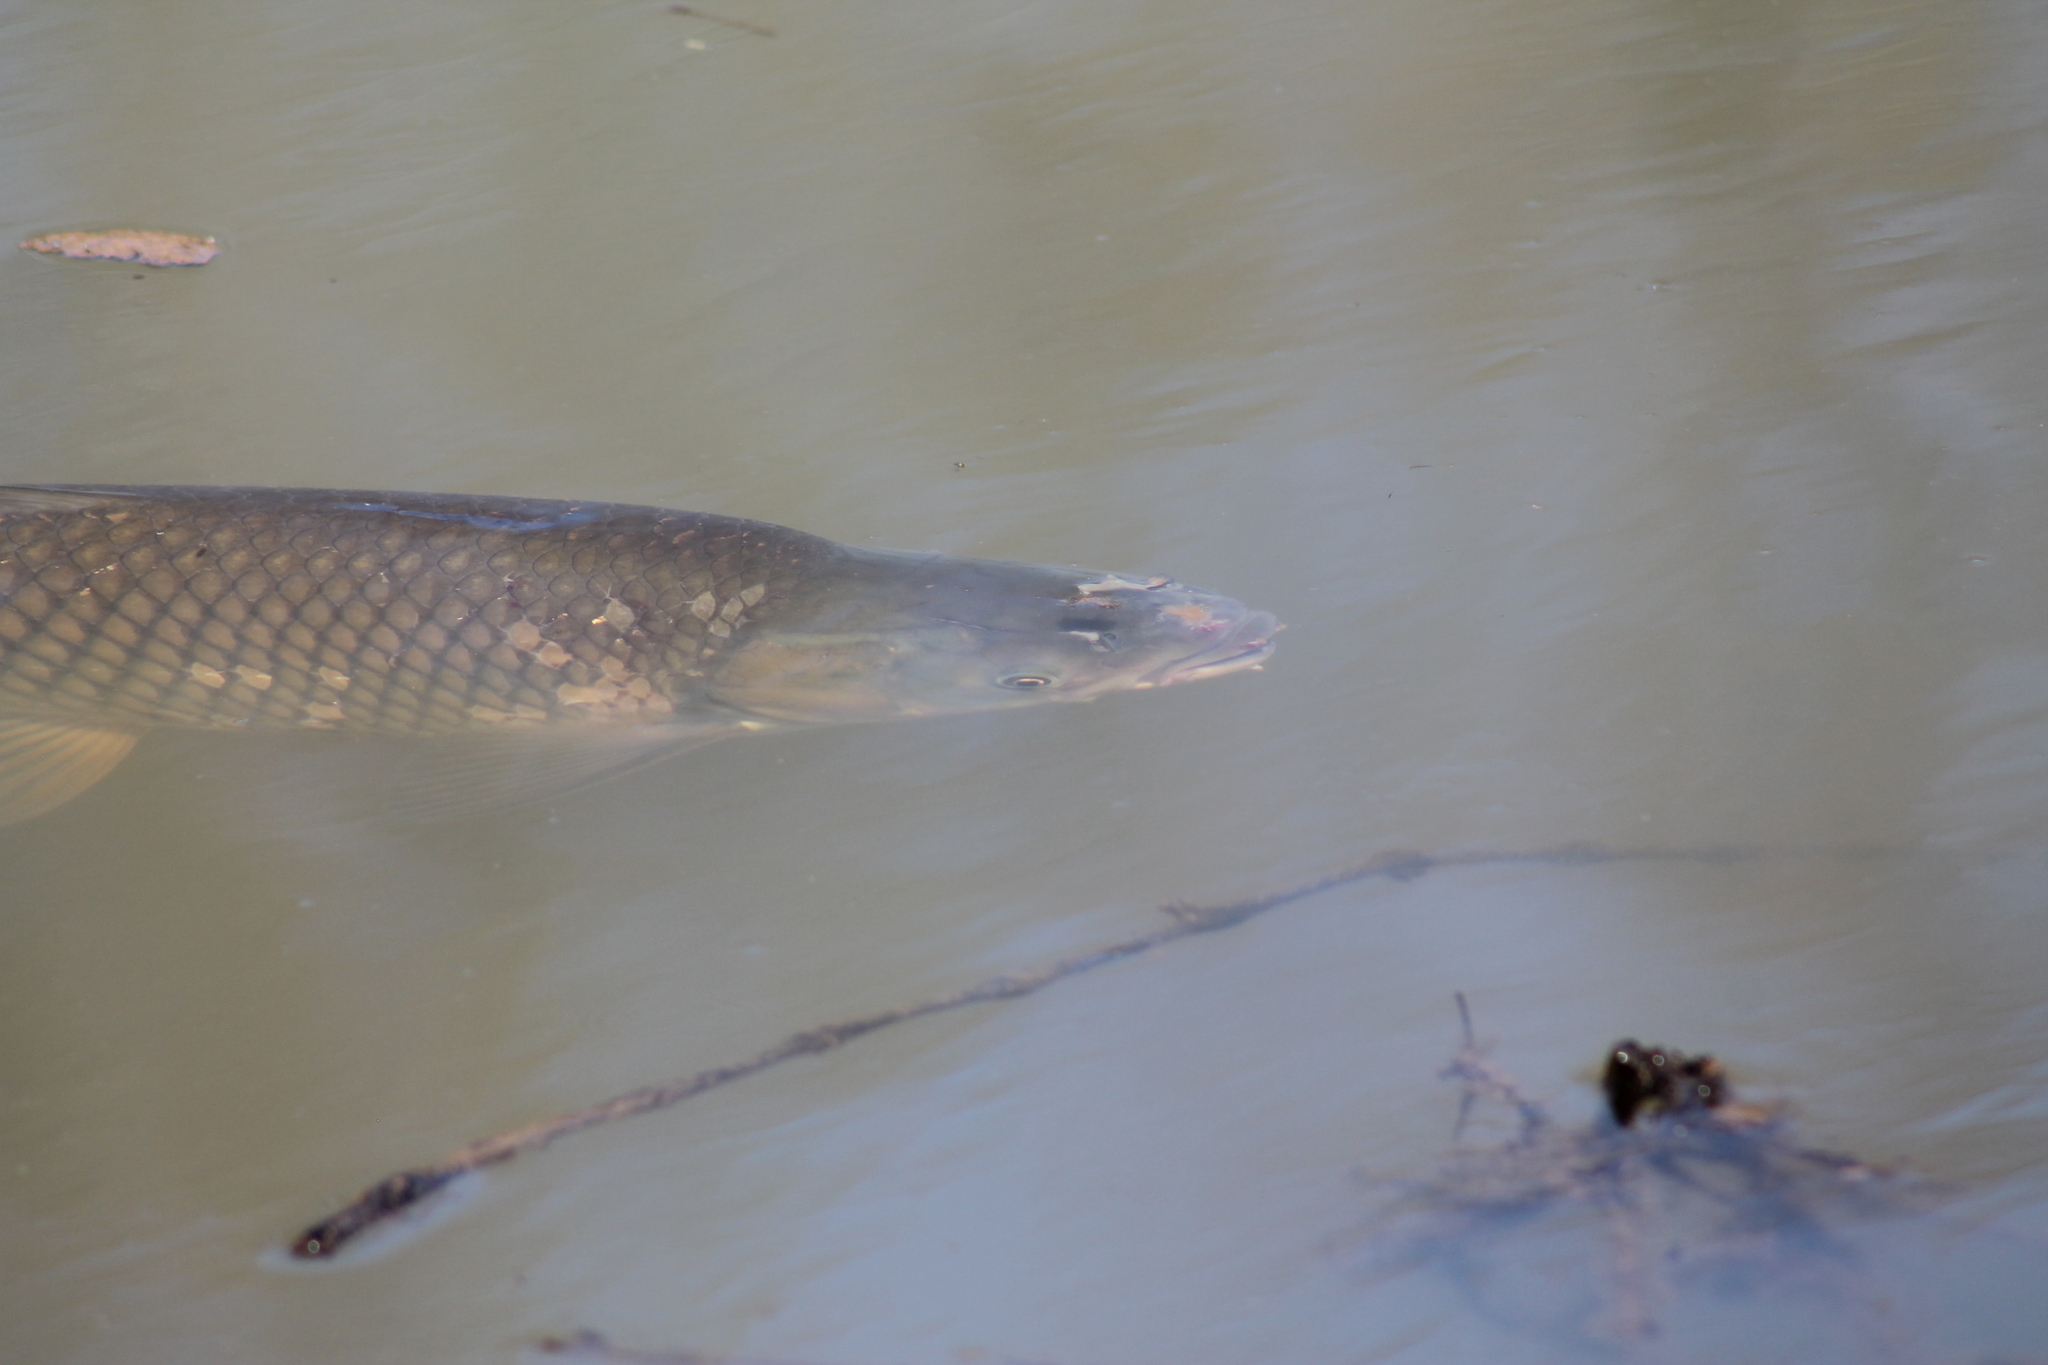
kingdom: Animalia
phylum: Chordata
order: Cypriniformes
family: Cyprinidae
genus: Ctenopharyngodon
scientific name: Ctenopharyngodon idella
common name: Grass carp
